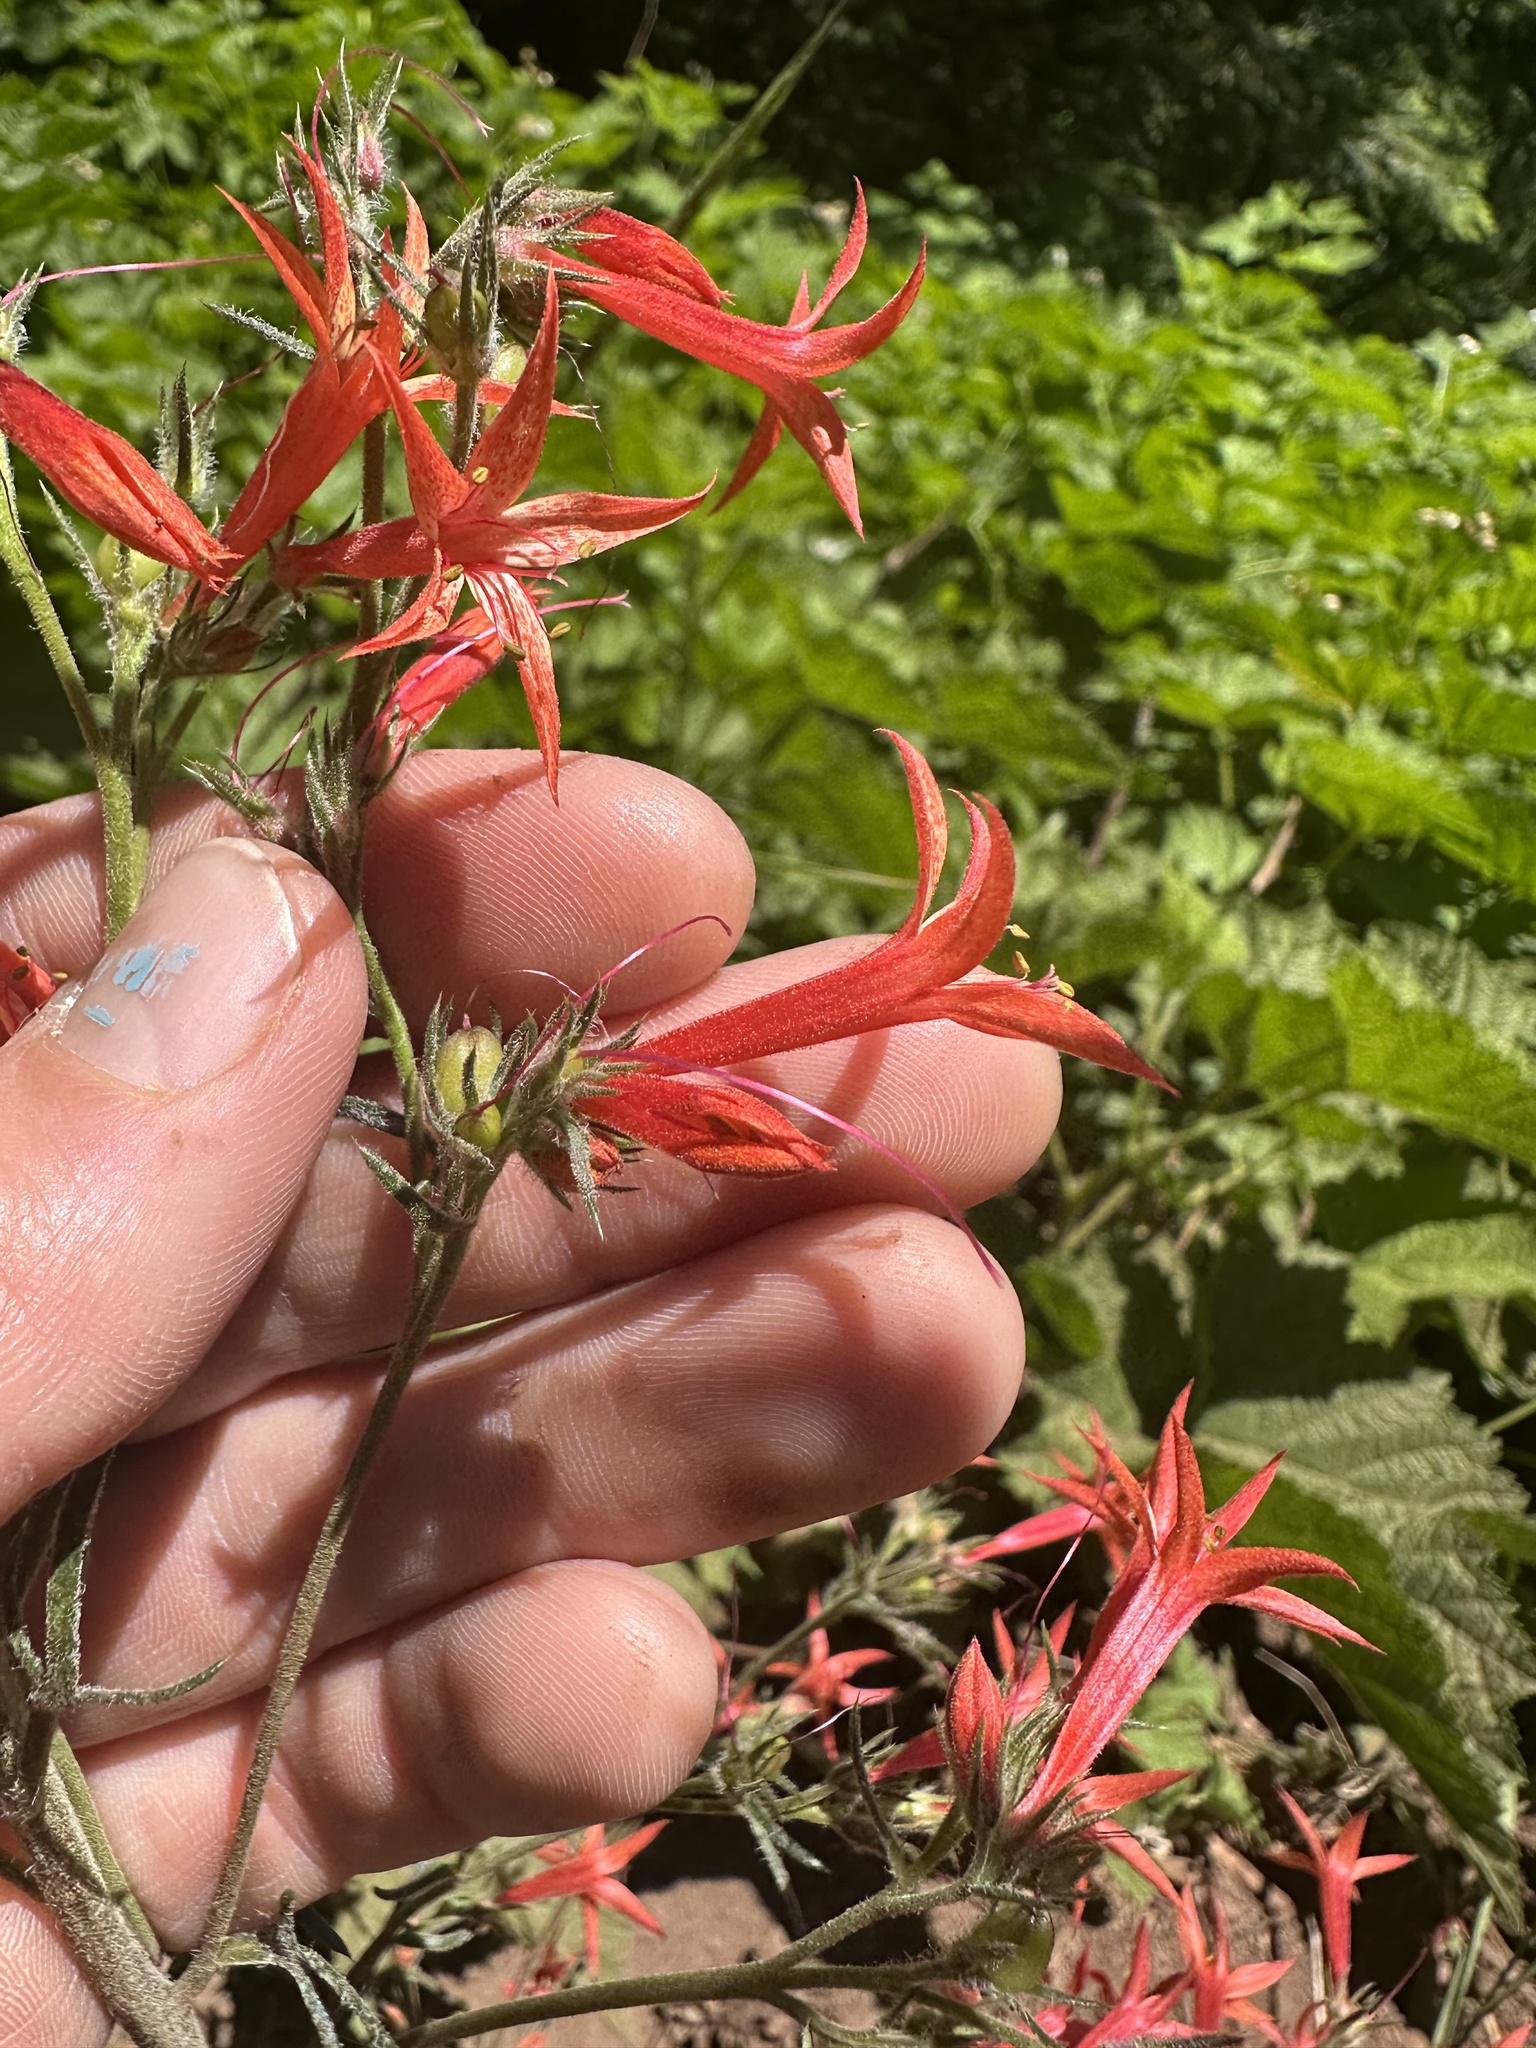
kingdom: Plantae
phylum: Tracheophyta
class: Magnoliopsida
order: Ericales
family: Polemoniaceae
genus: Ipomopsis
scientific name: Ipomopsis aggregata
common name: Scarlet gilia
